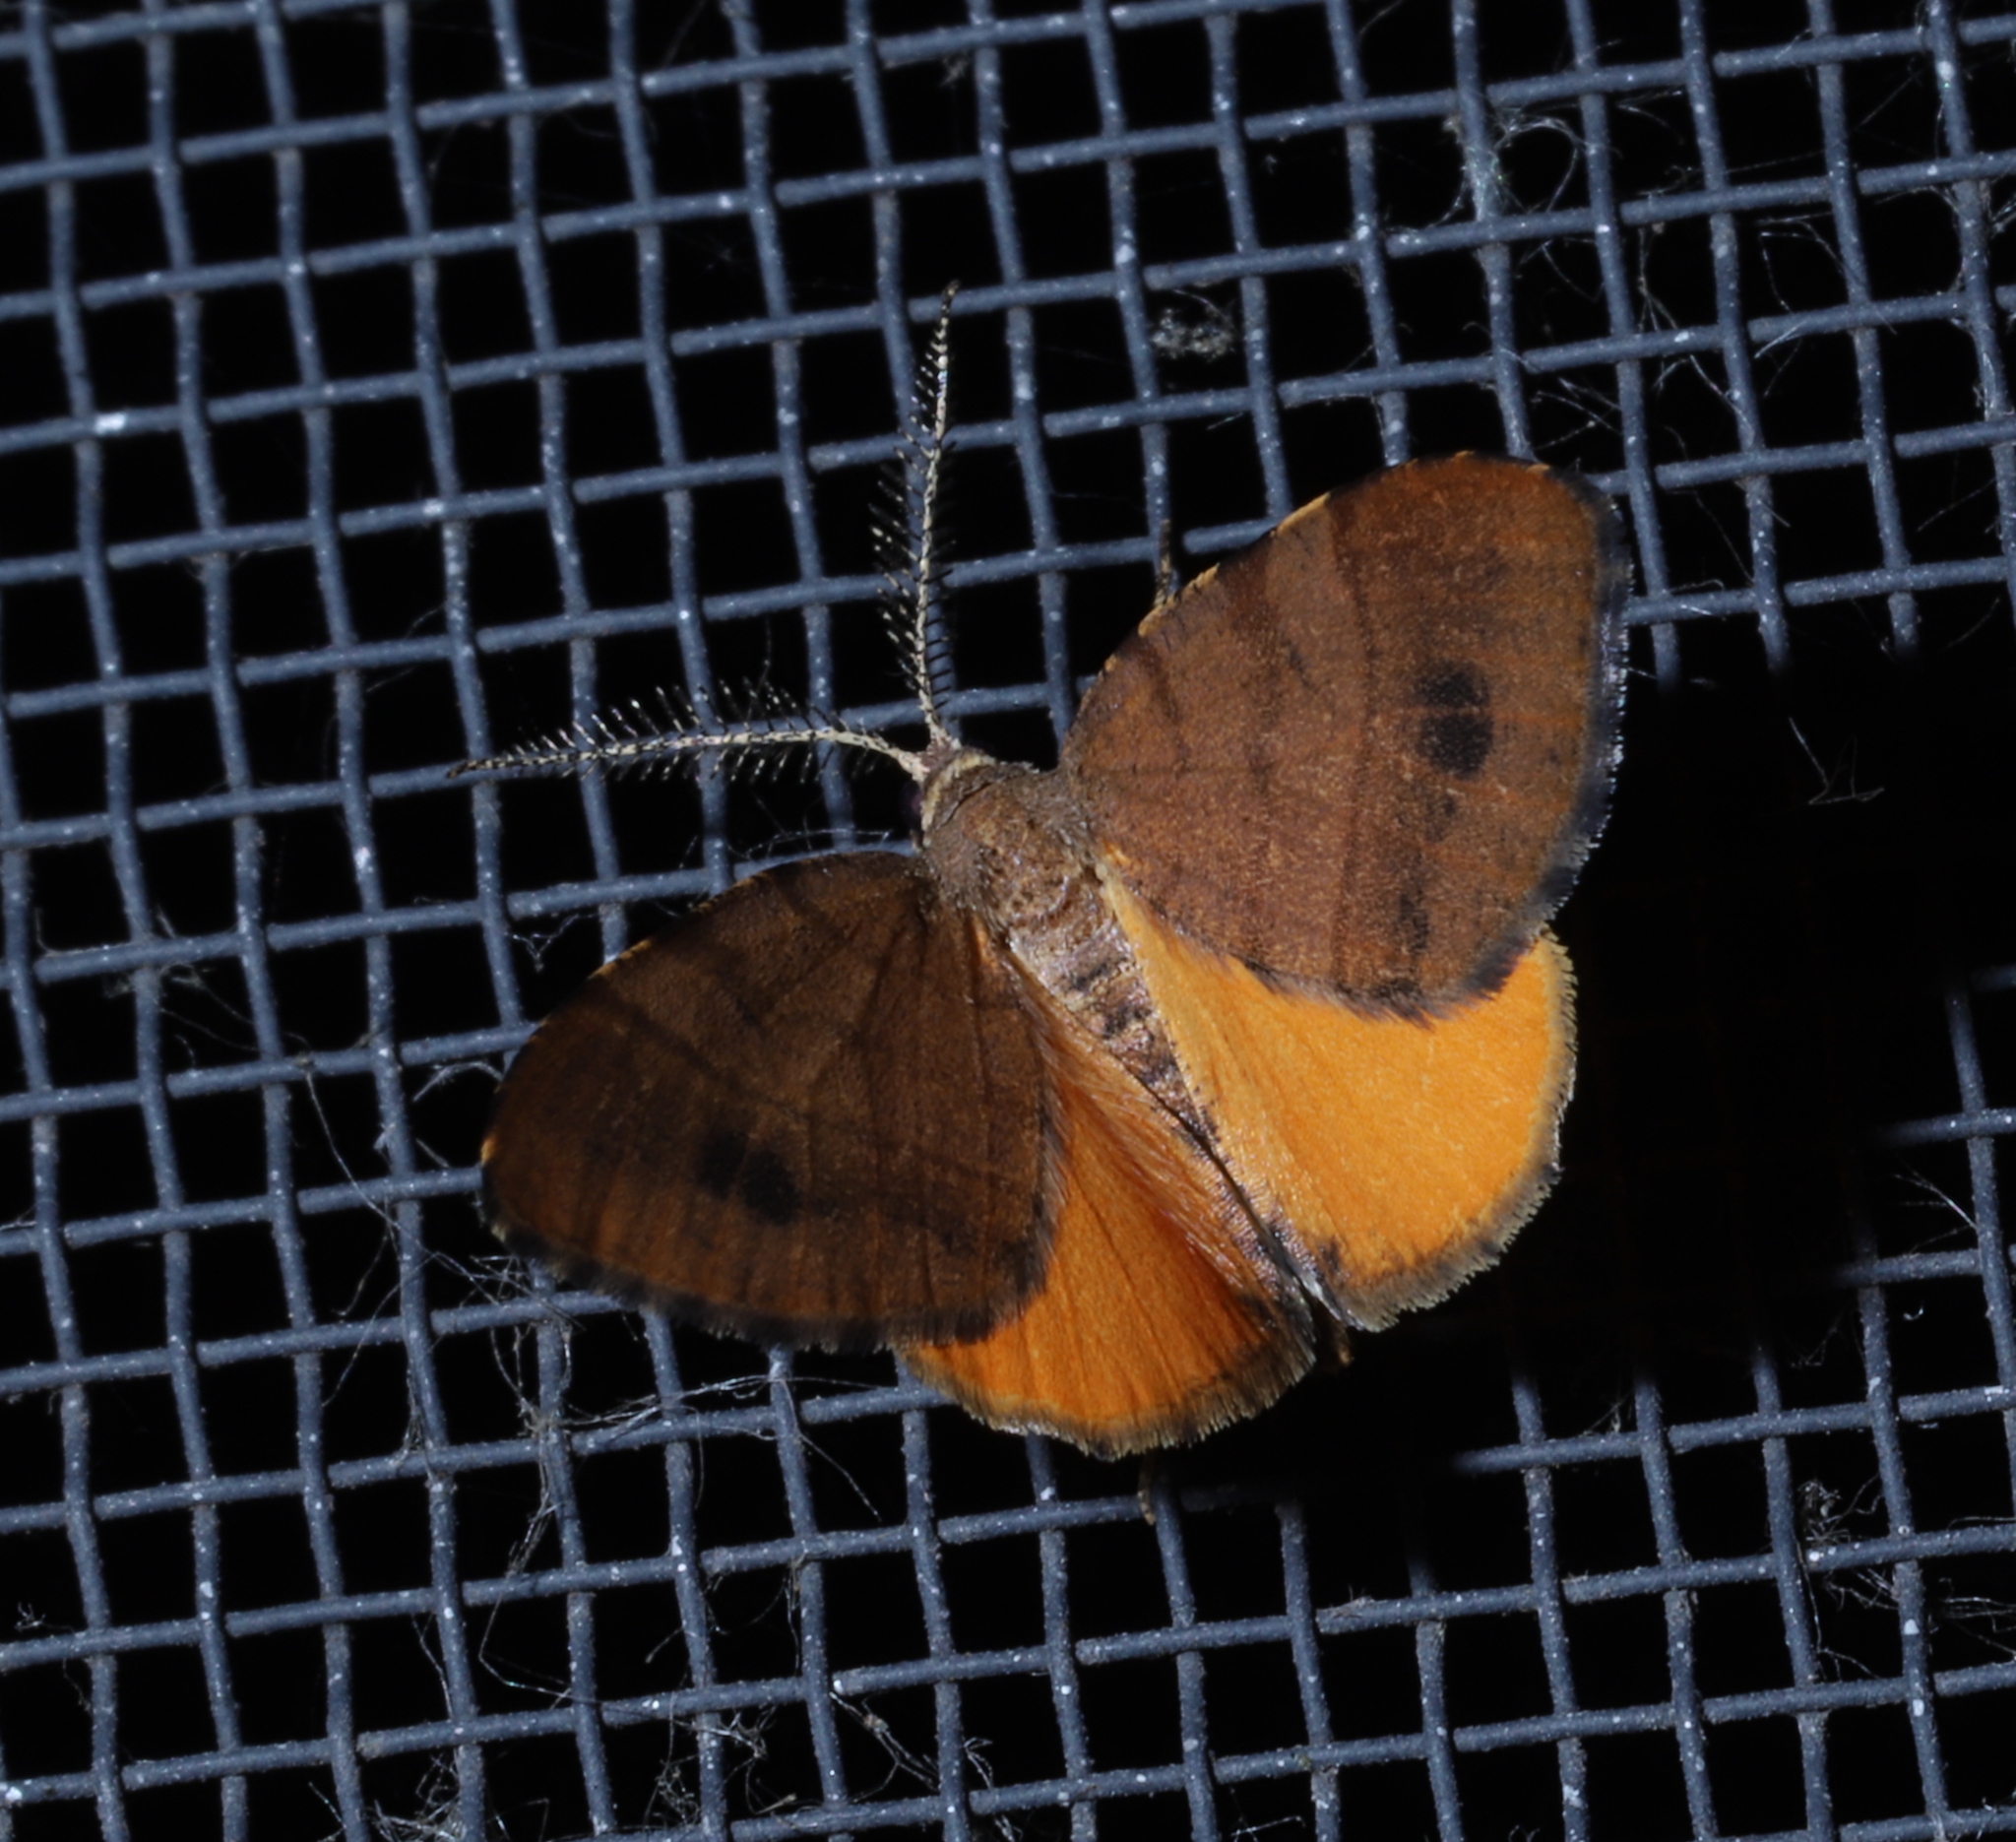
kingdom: Animalia
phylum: Arthropoda
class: Insecta
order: Lepidoptera
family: Geometridae
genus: Mellilla
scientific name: Mellilla xanthometata
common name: Orange wing moth
